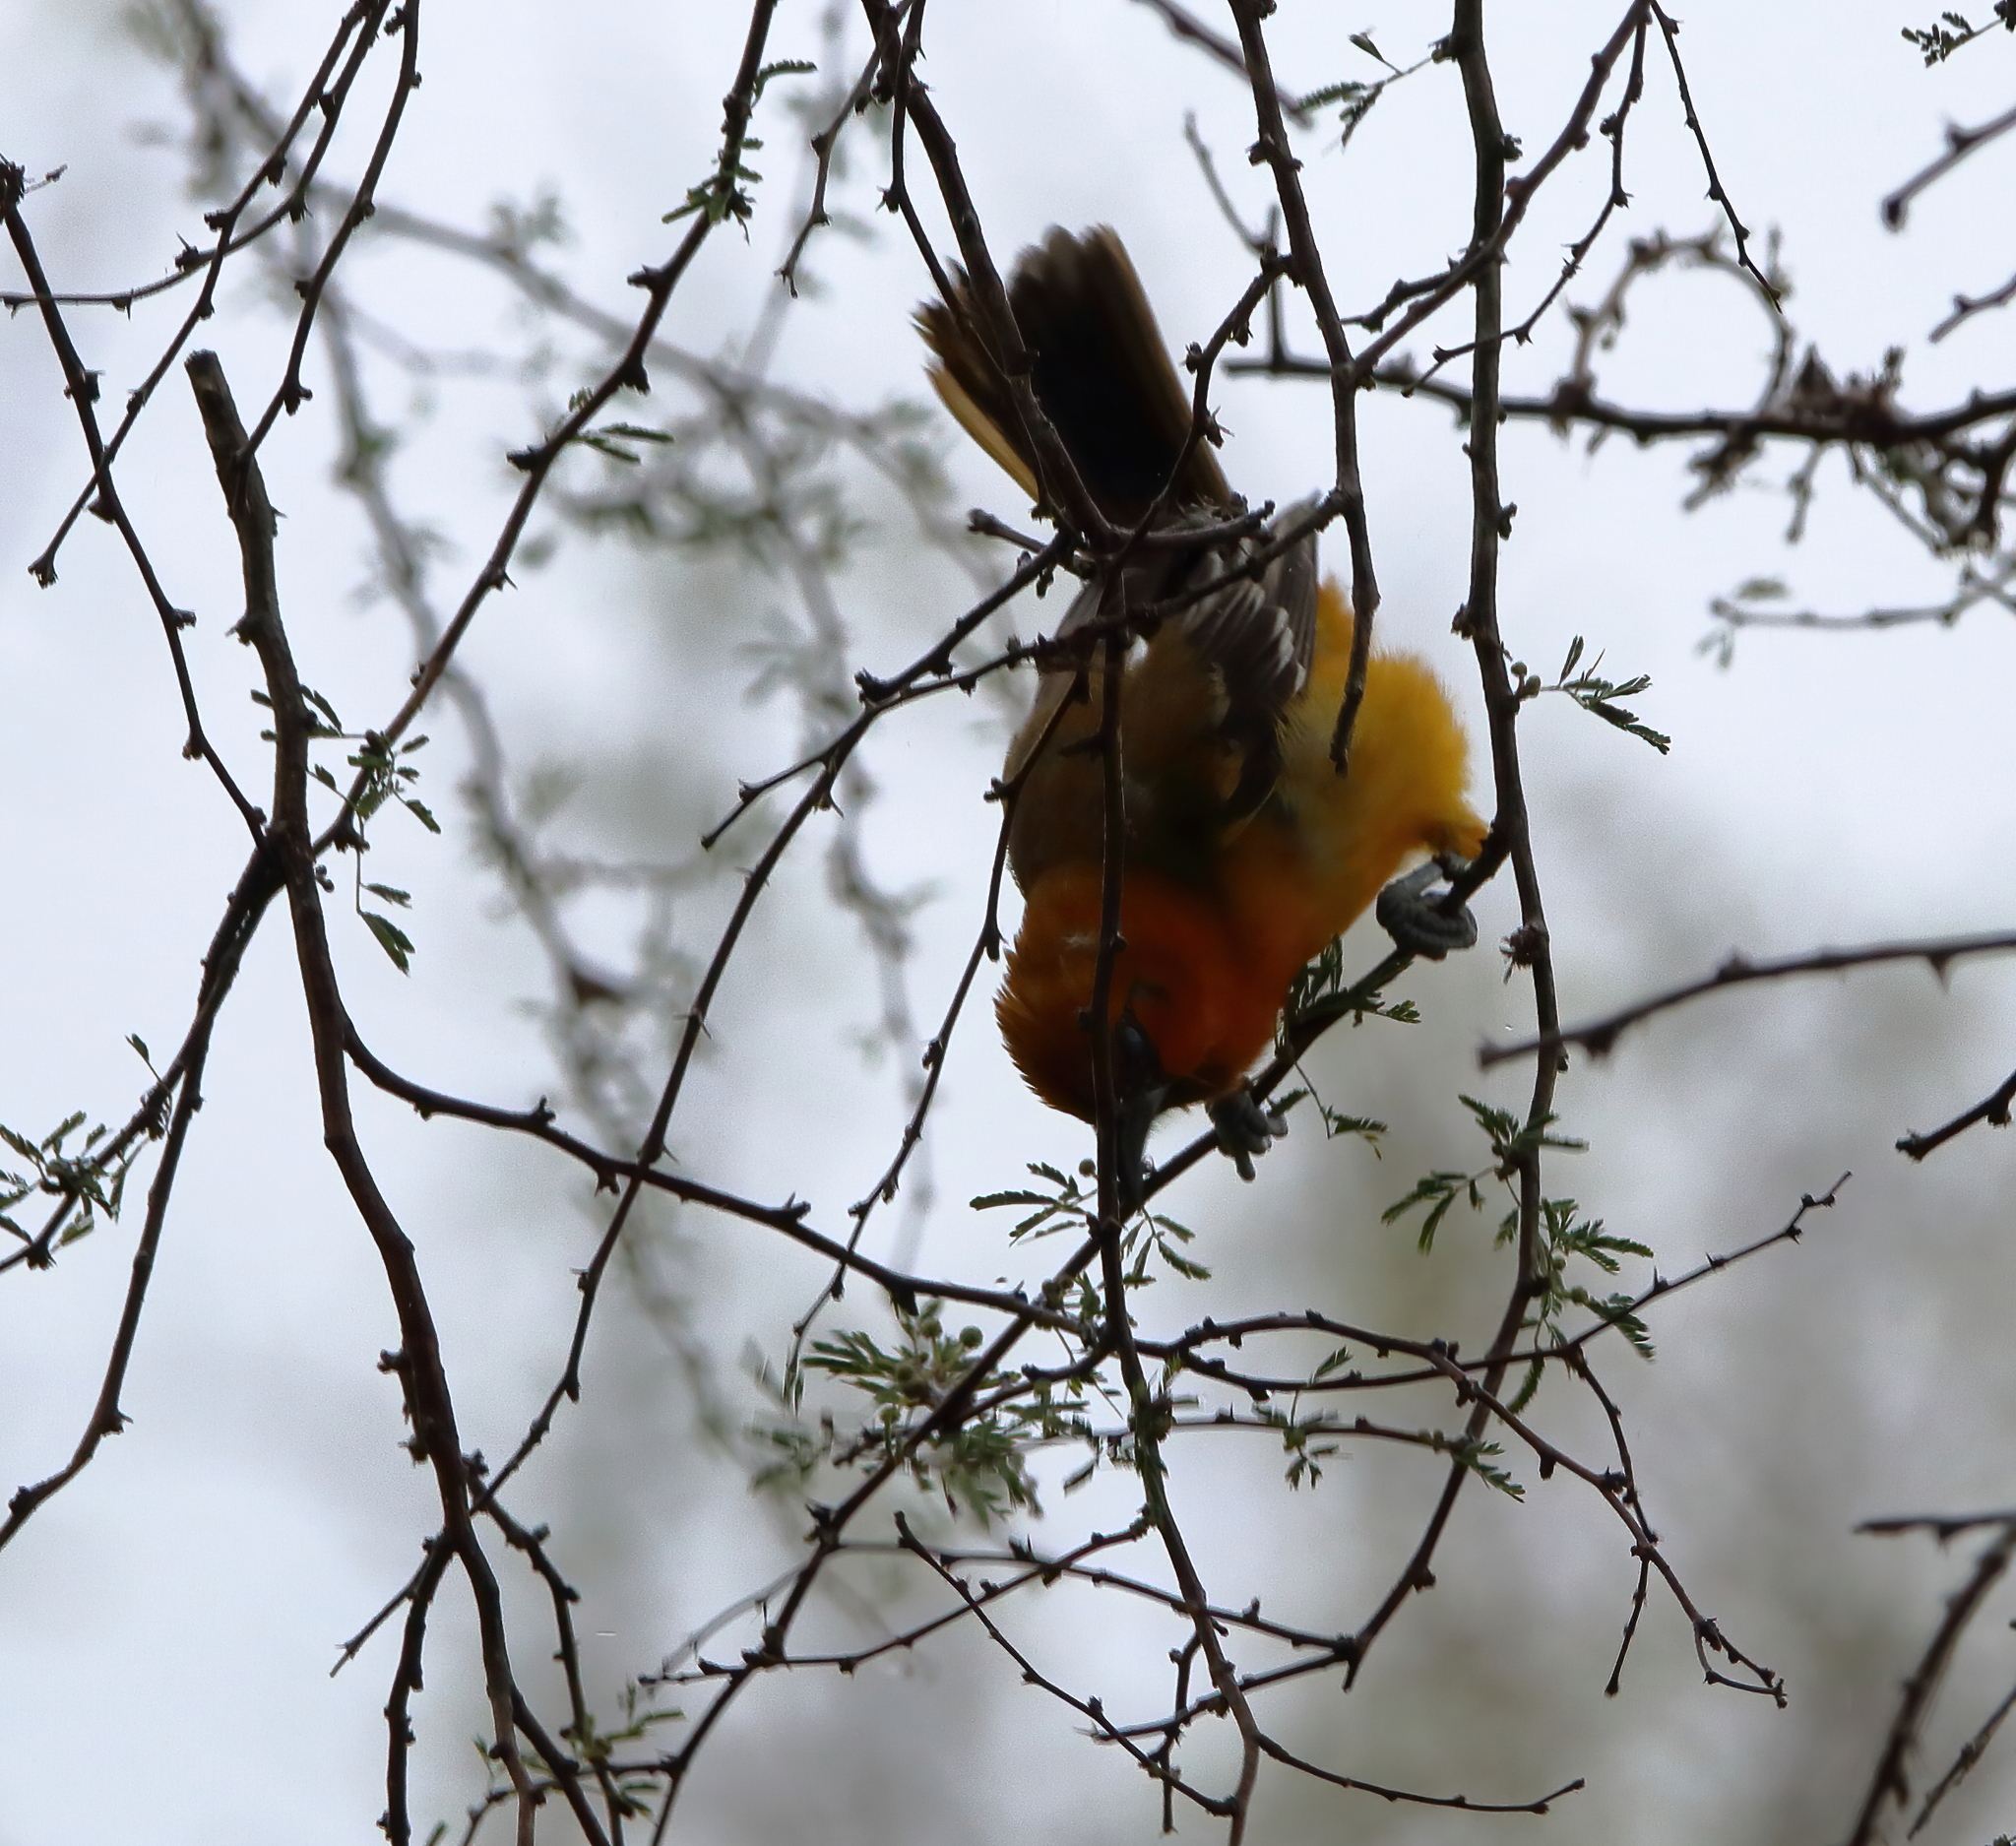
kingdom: Animalia
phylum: Chordata
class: Aves
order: Passeriformes
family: Icteridae
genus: Icterus
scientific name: Icterus gularis
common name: Altamira oriole
